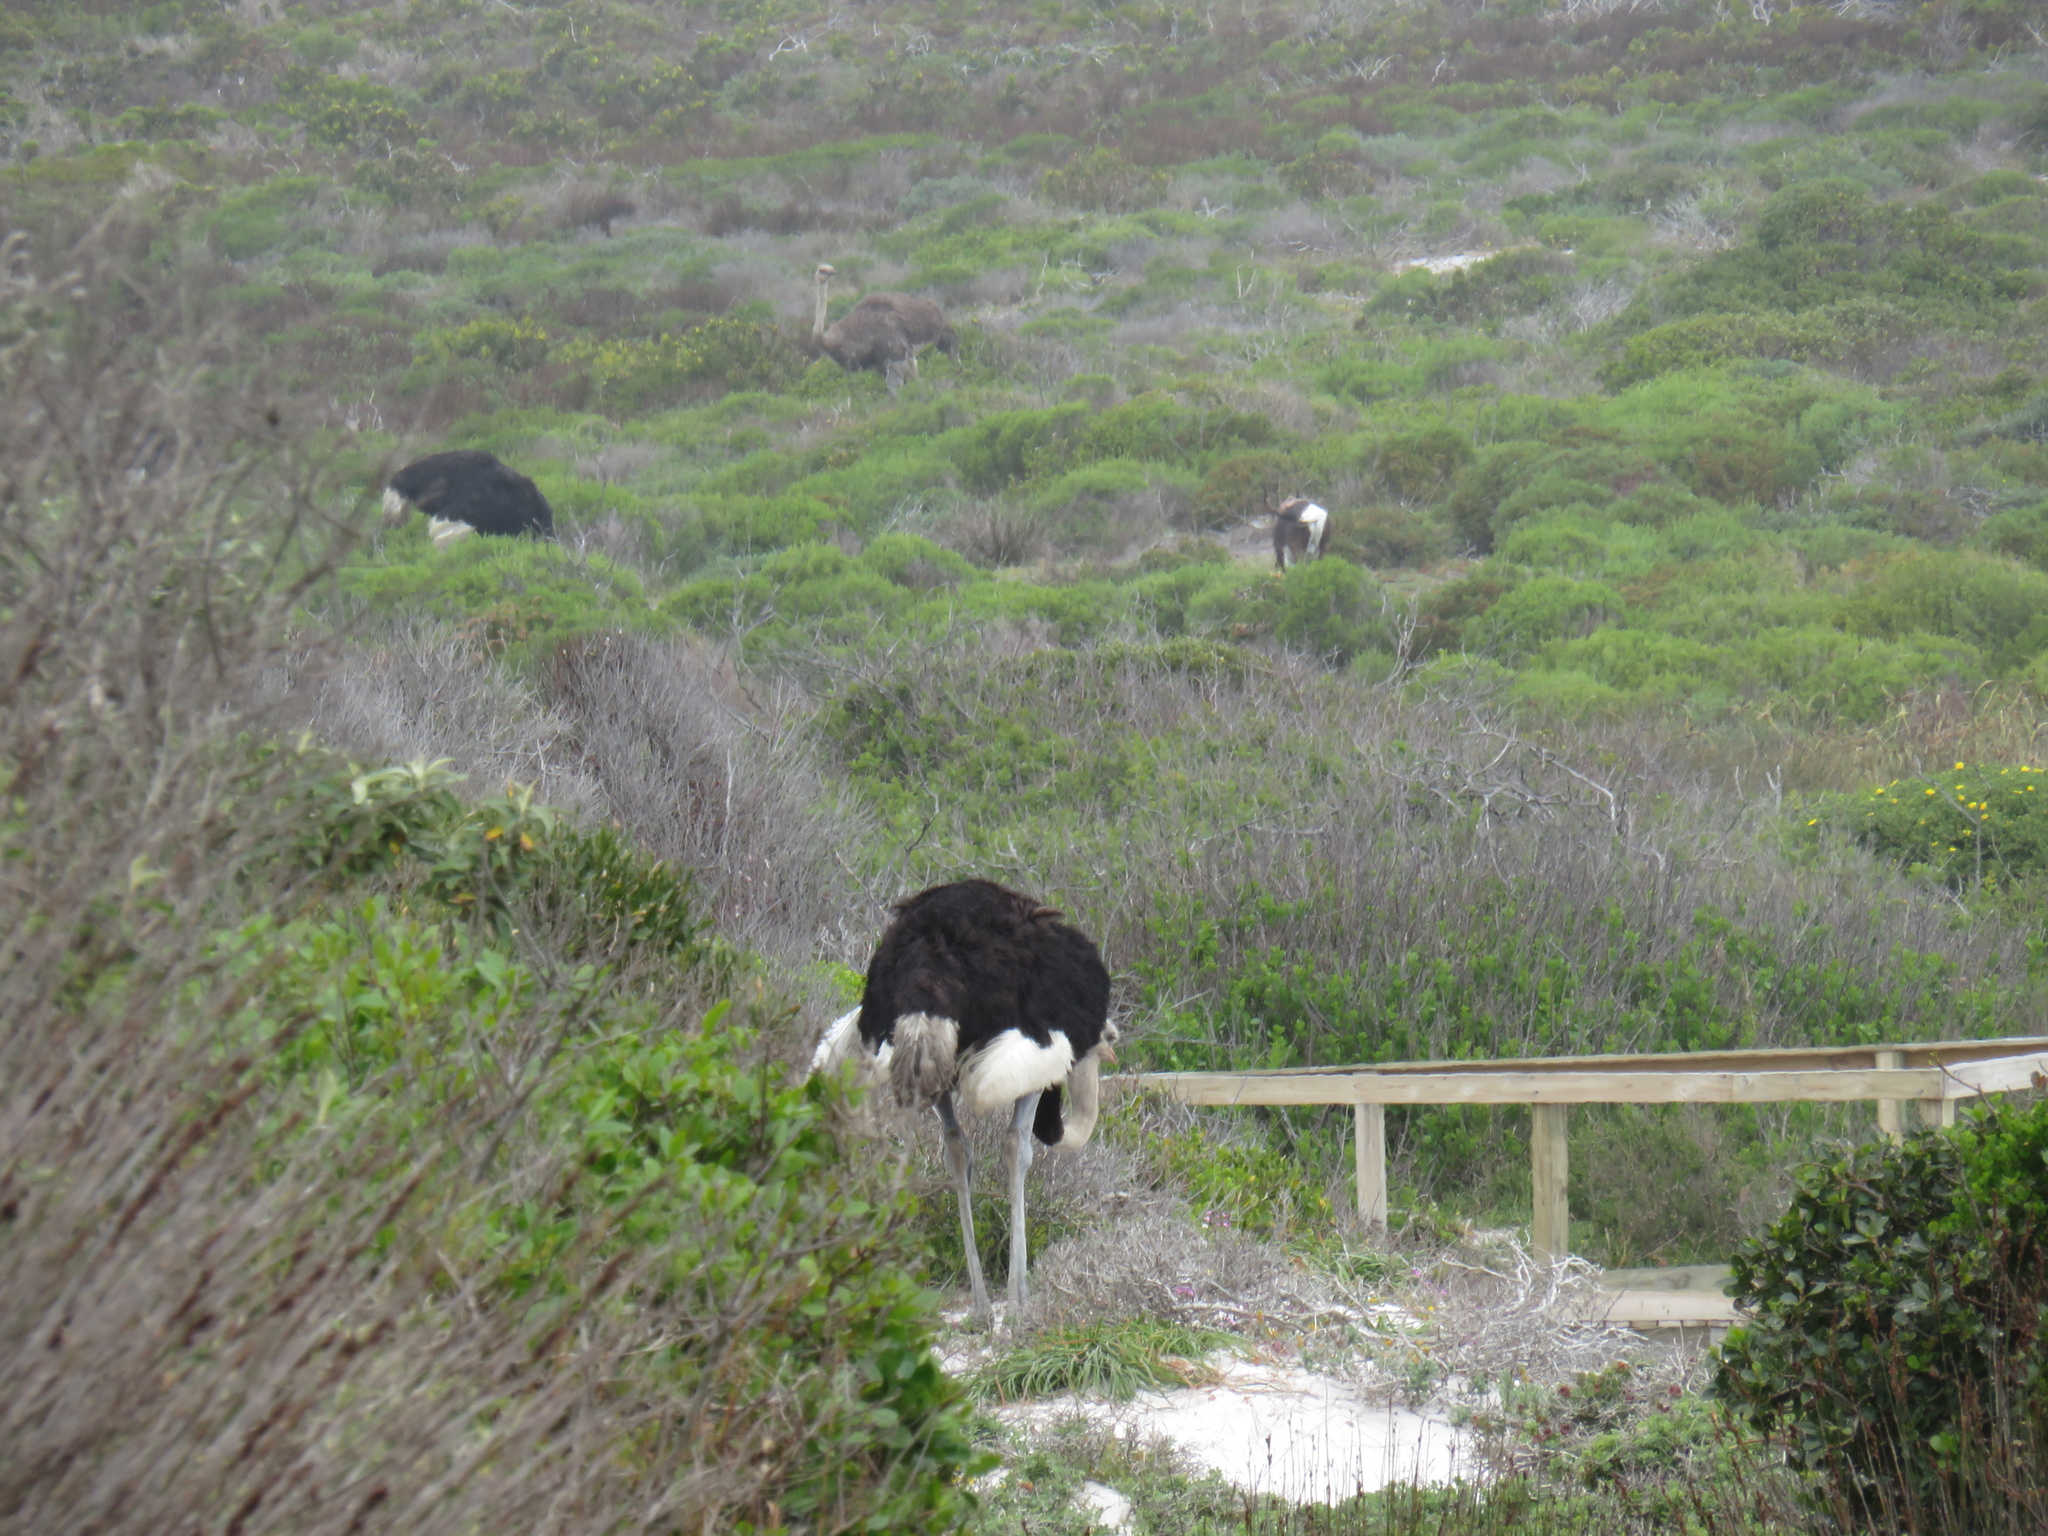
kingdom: Animalia
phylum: Chordata
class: Aves
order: Struthioniformes
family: Struthionidae
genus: Struthio
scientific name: Struthio camelus
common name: Common ostrich
